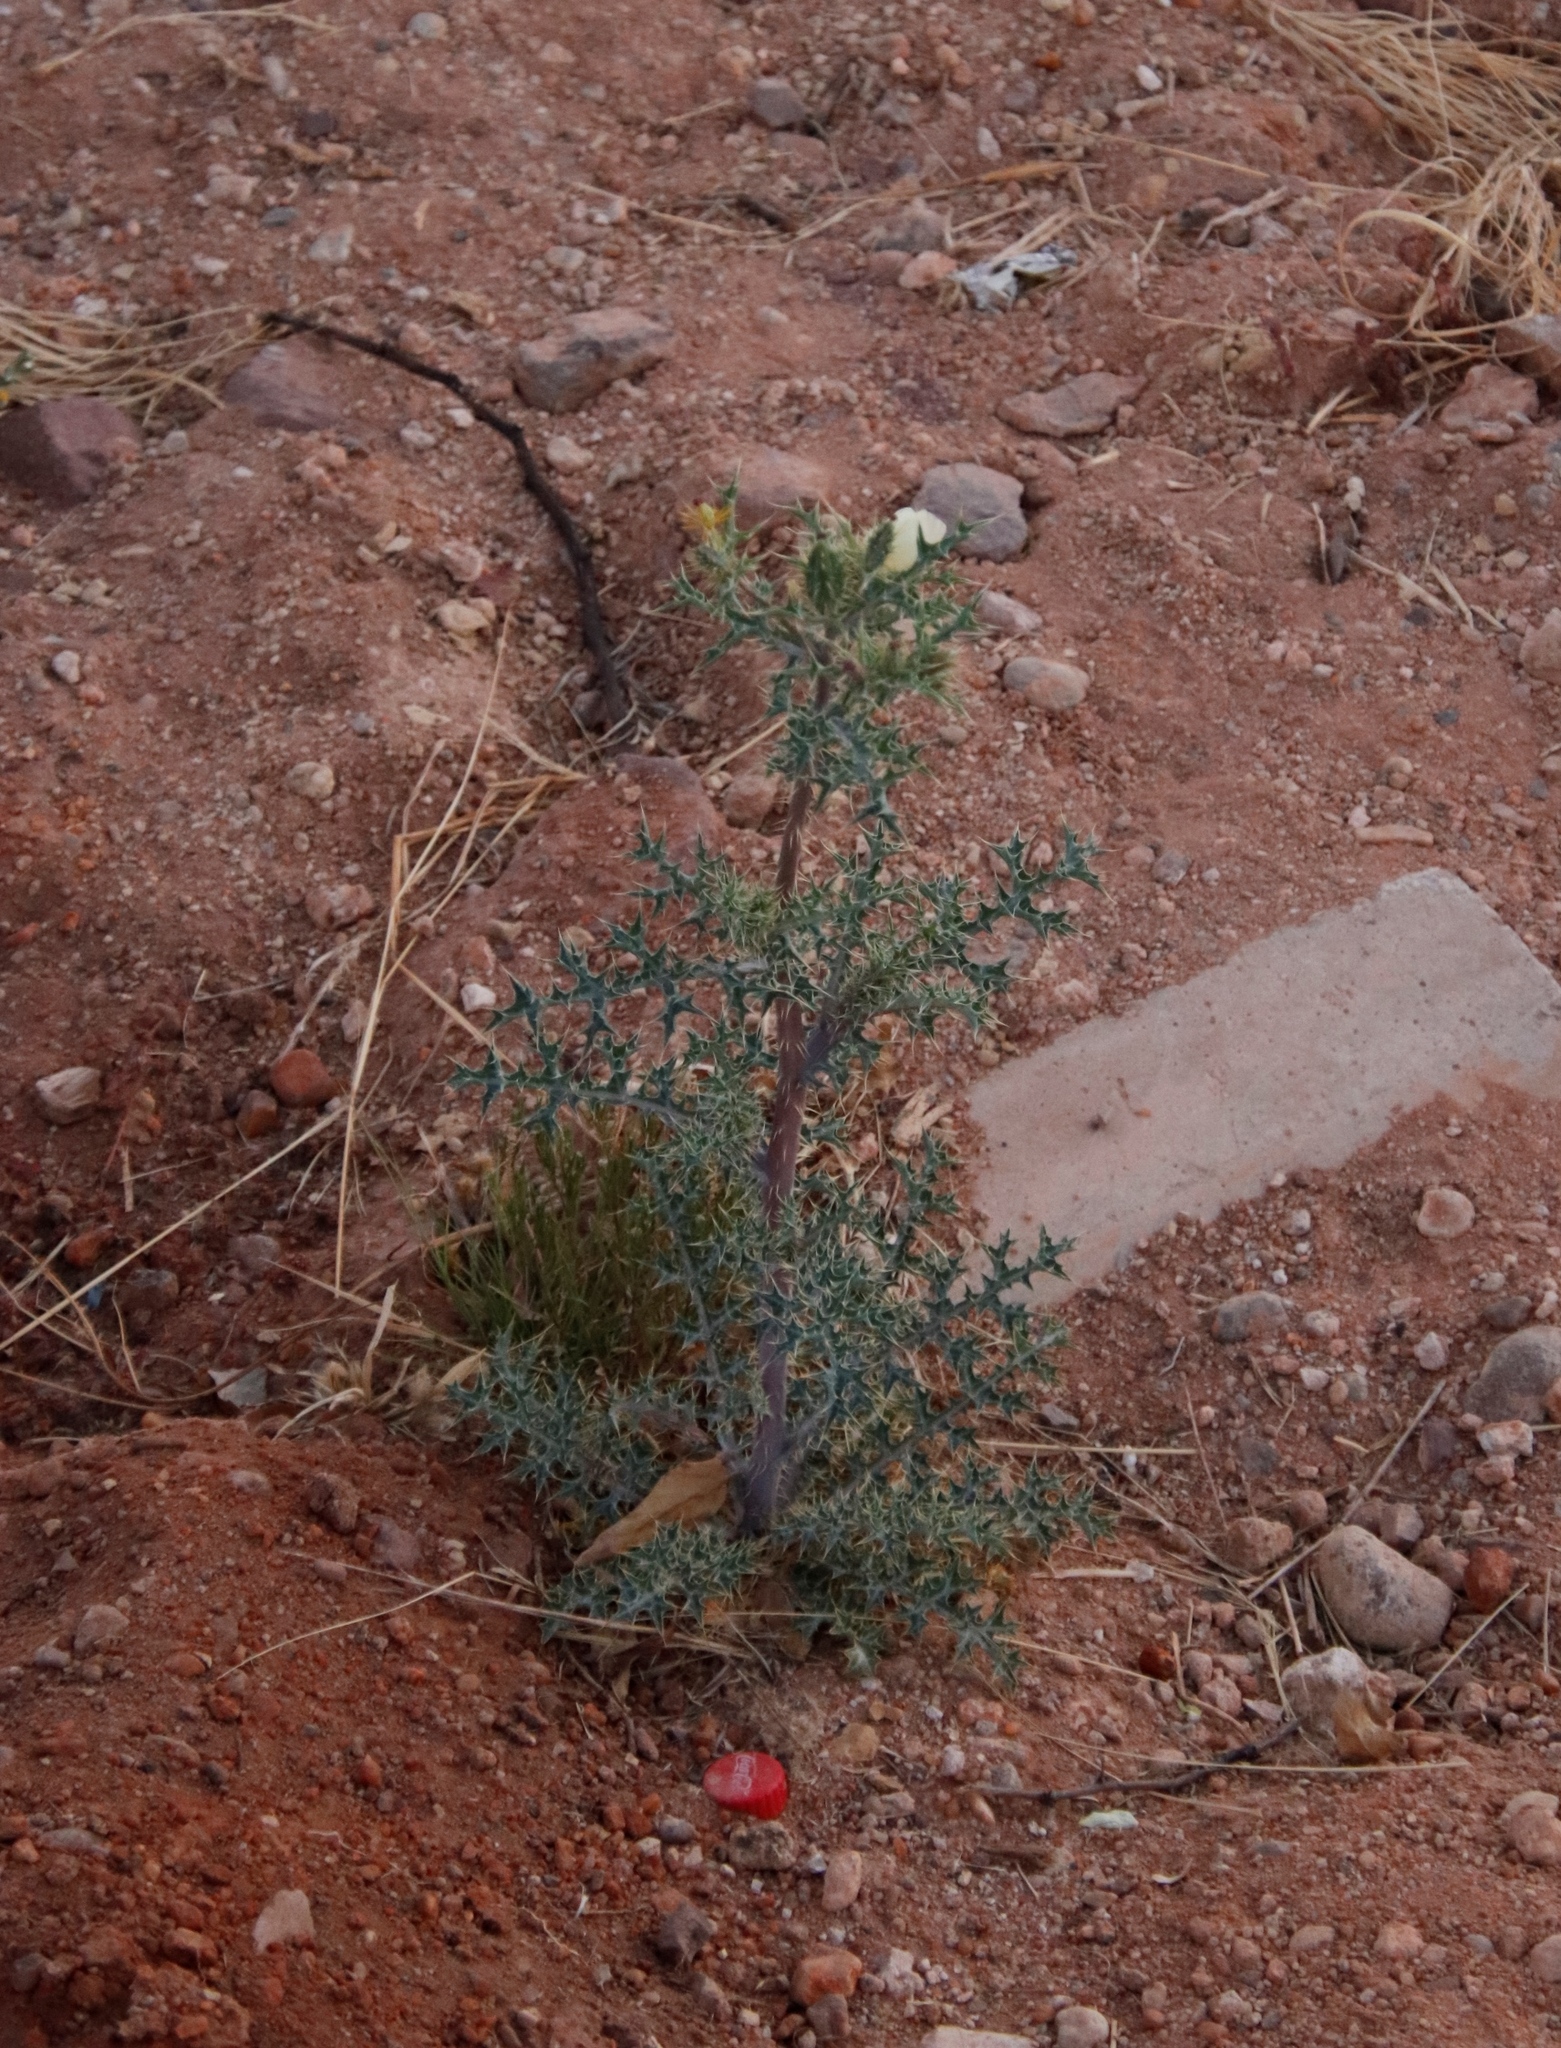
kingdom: Plantae
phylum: Tracheophyta
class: Magnoliopsida
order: Ranunculales
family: Papaveraceae
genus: Argemone
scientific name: Argemone ochroleuca
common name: White-flower mexican-poppy
